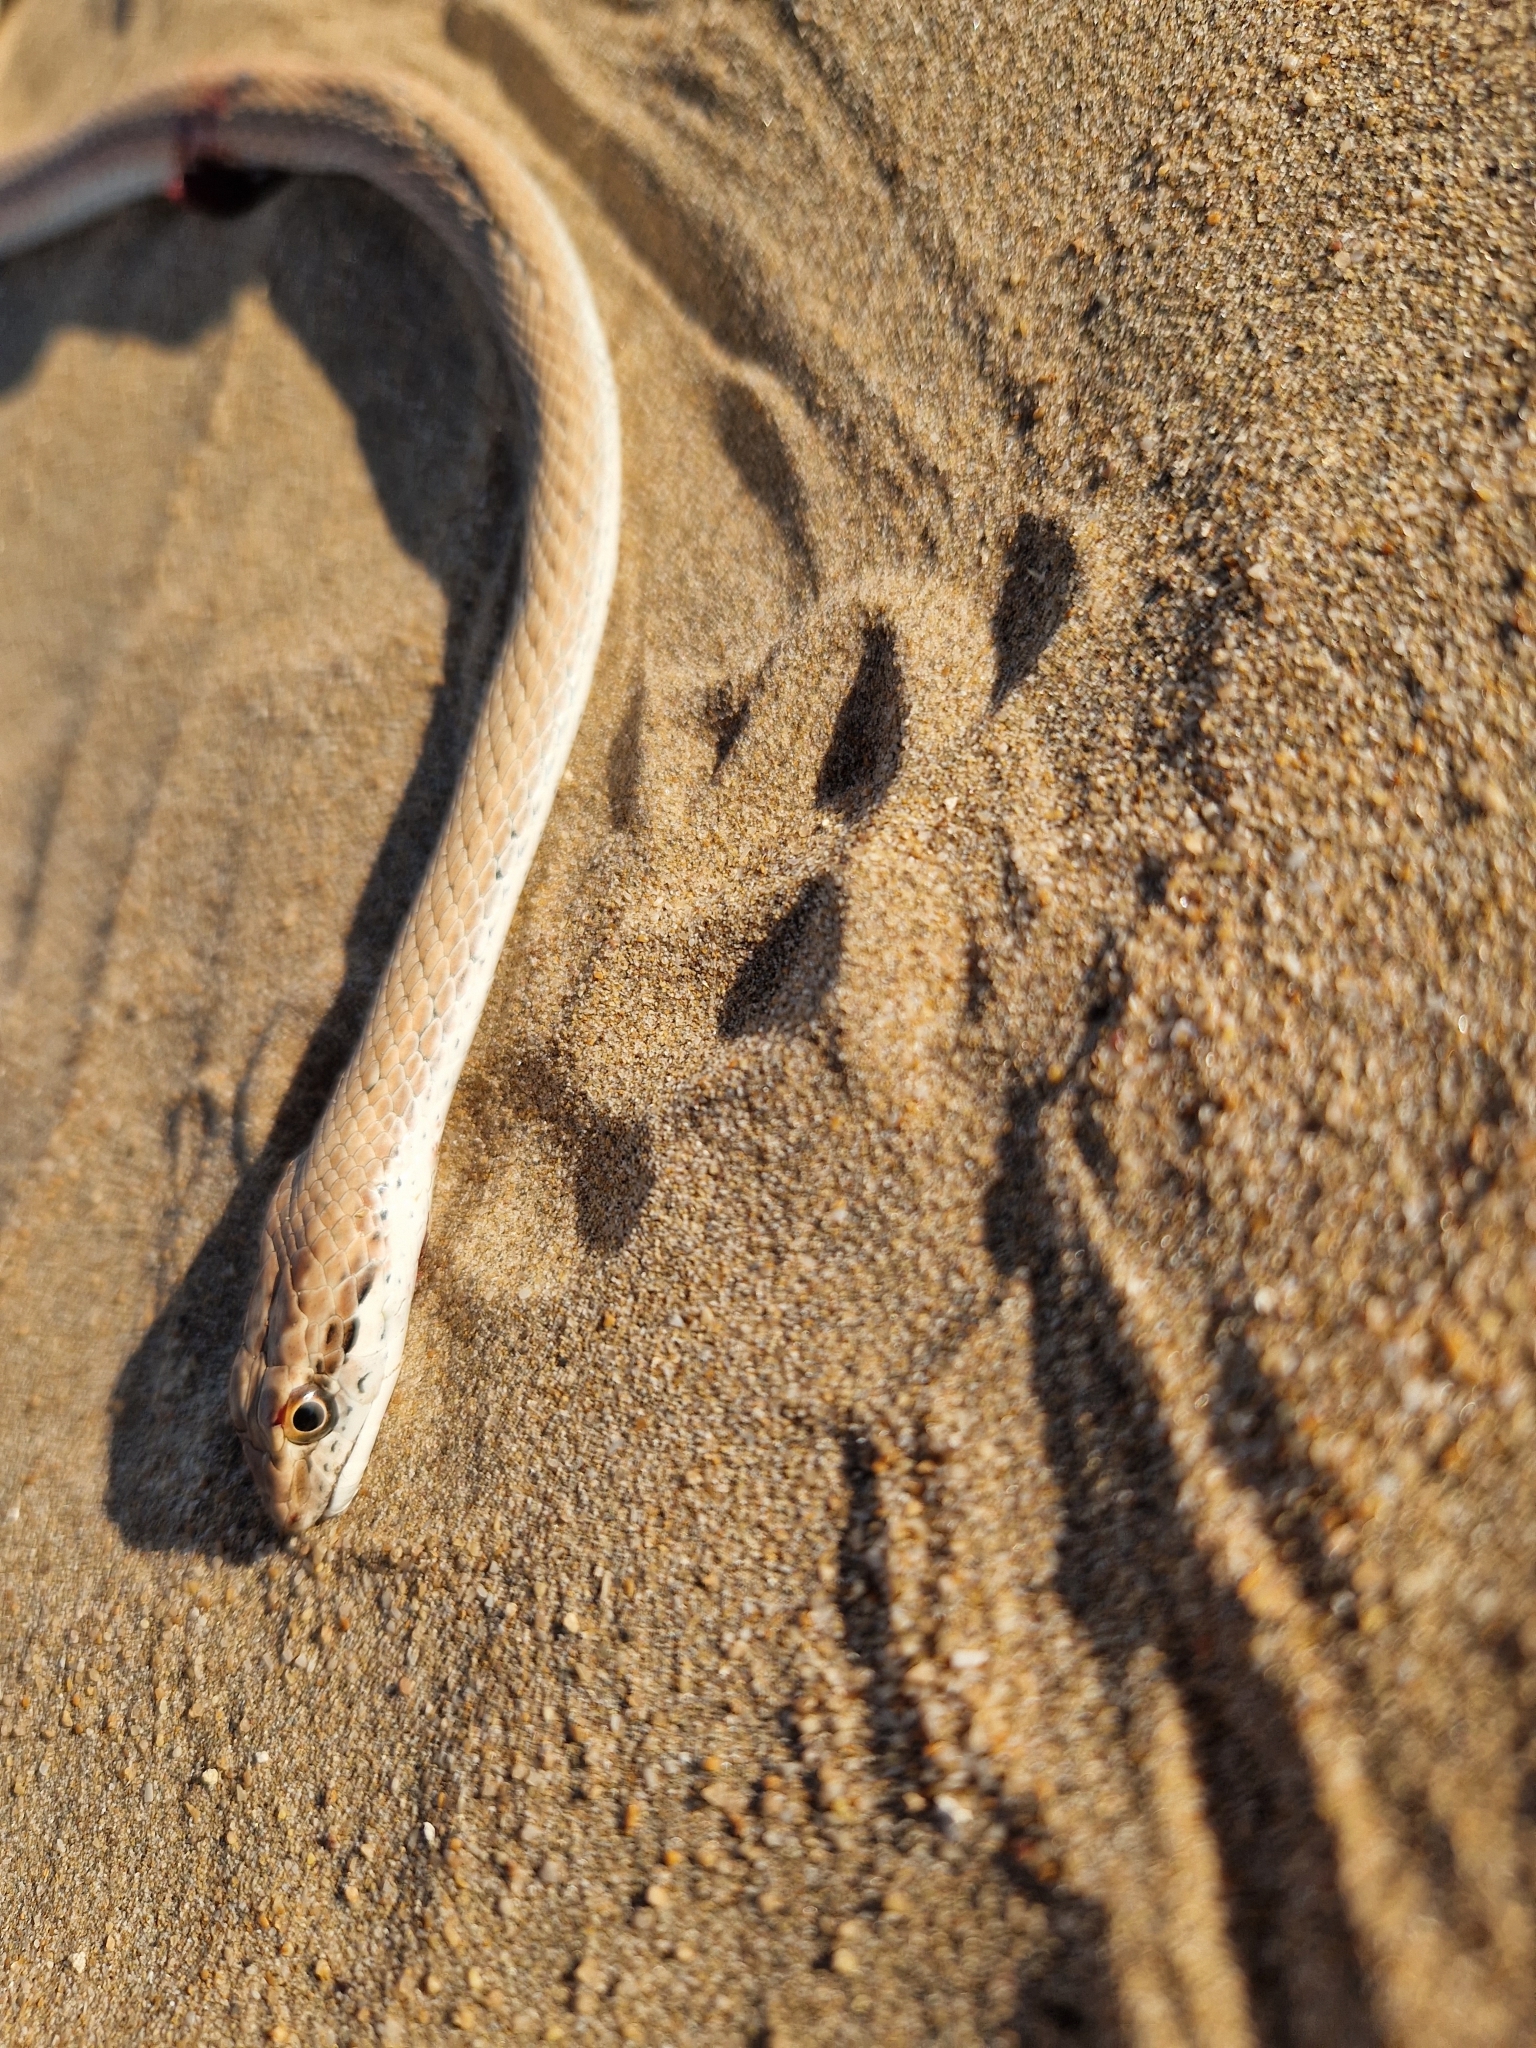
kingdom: Animalia
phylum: Chordata
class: Squamata
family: Psammophiidae
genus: Psammophis
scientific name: Psammophis schokari
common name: Schokari sand racer
